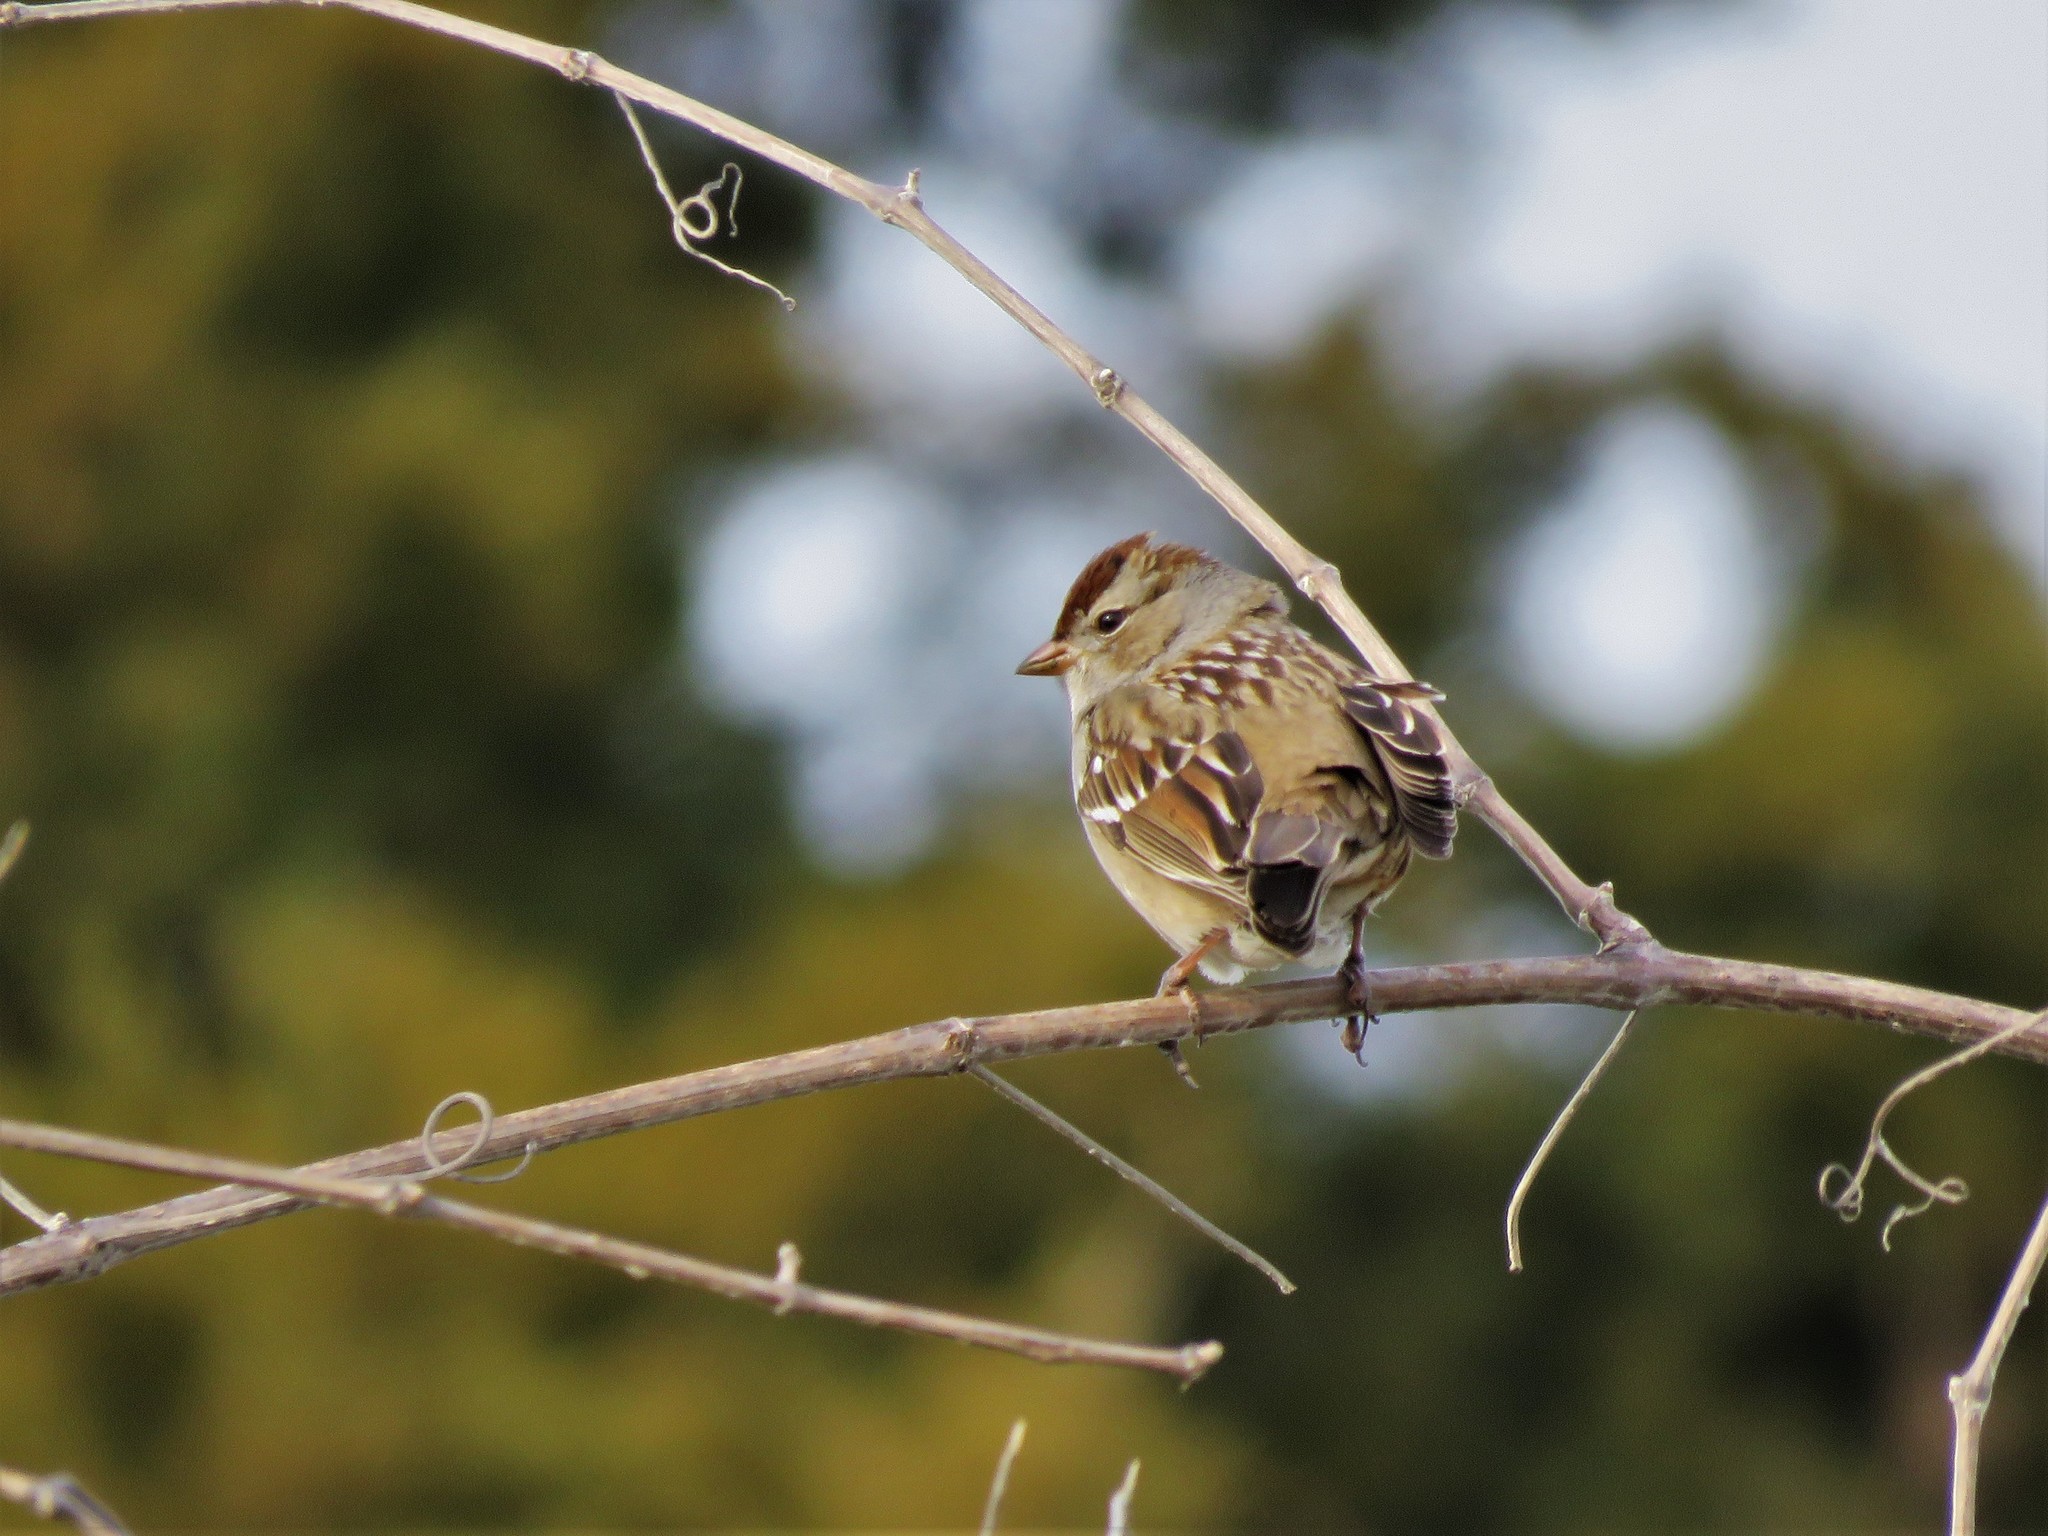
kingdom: Animalia
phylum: Chordata
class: Aves
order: Passeriformes
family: Passerellidae
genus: Zonotrichia
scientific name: Zonotrichia leucophrys
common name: White-crowned sparrow
